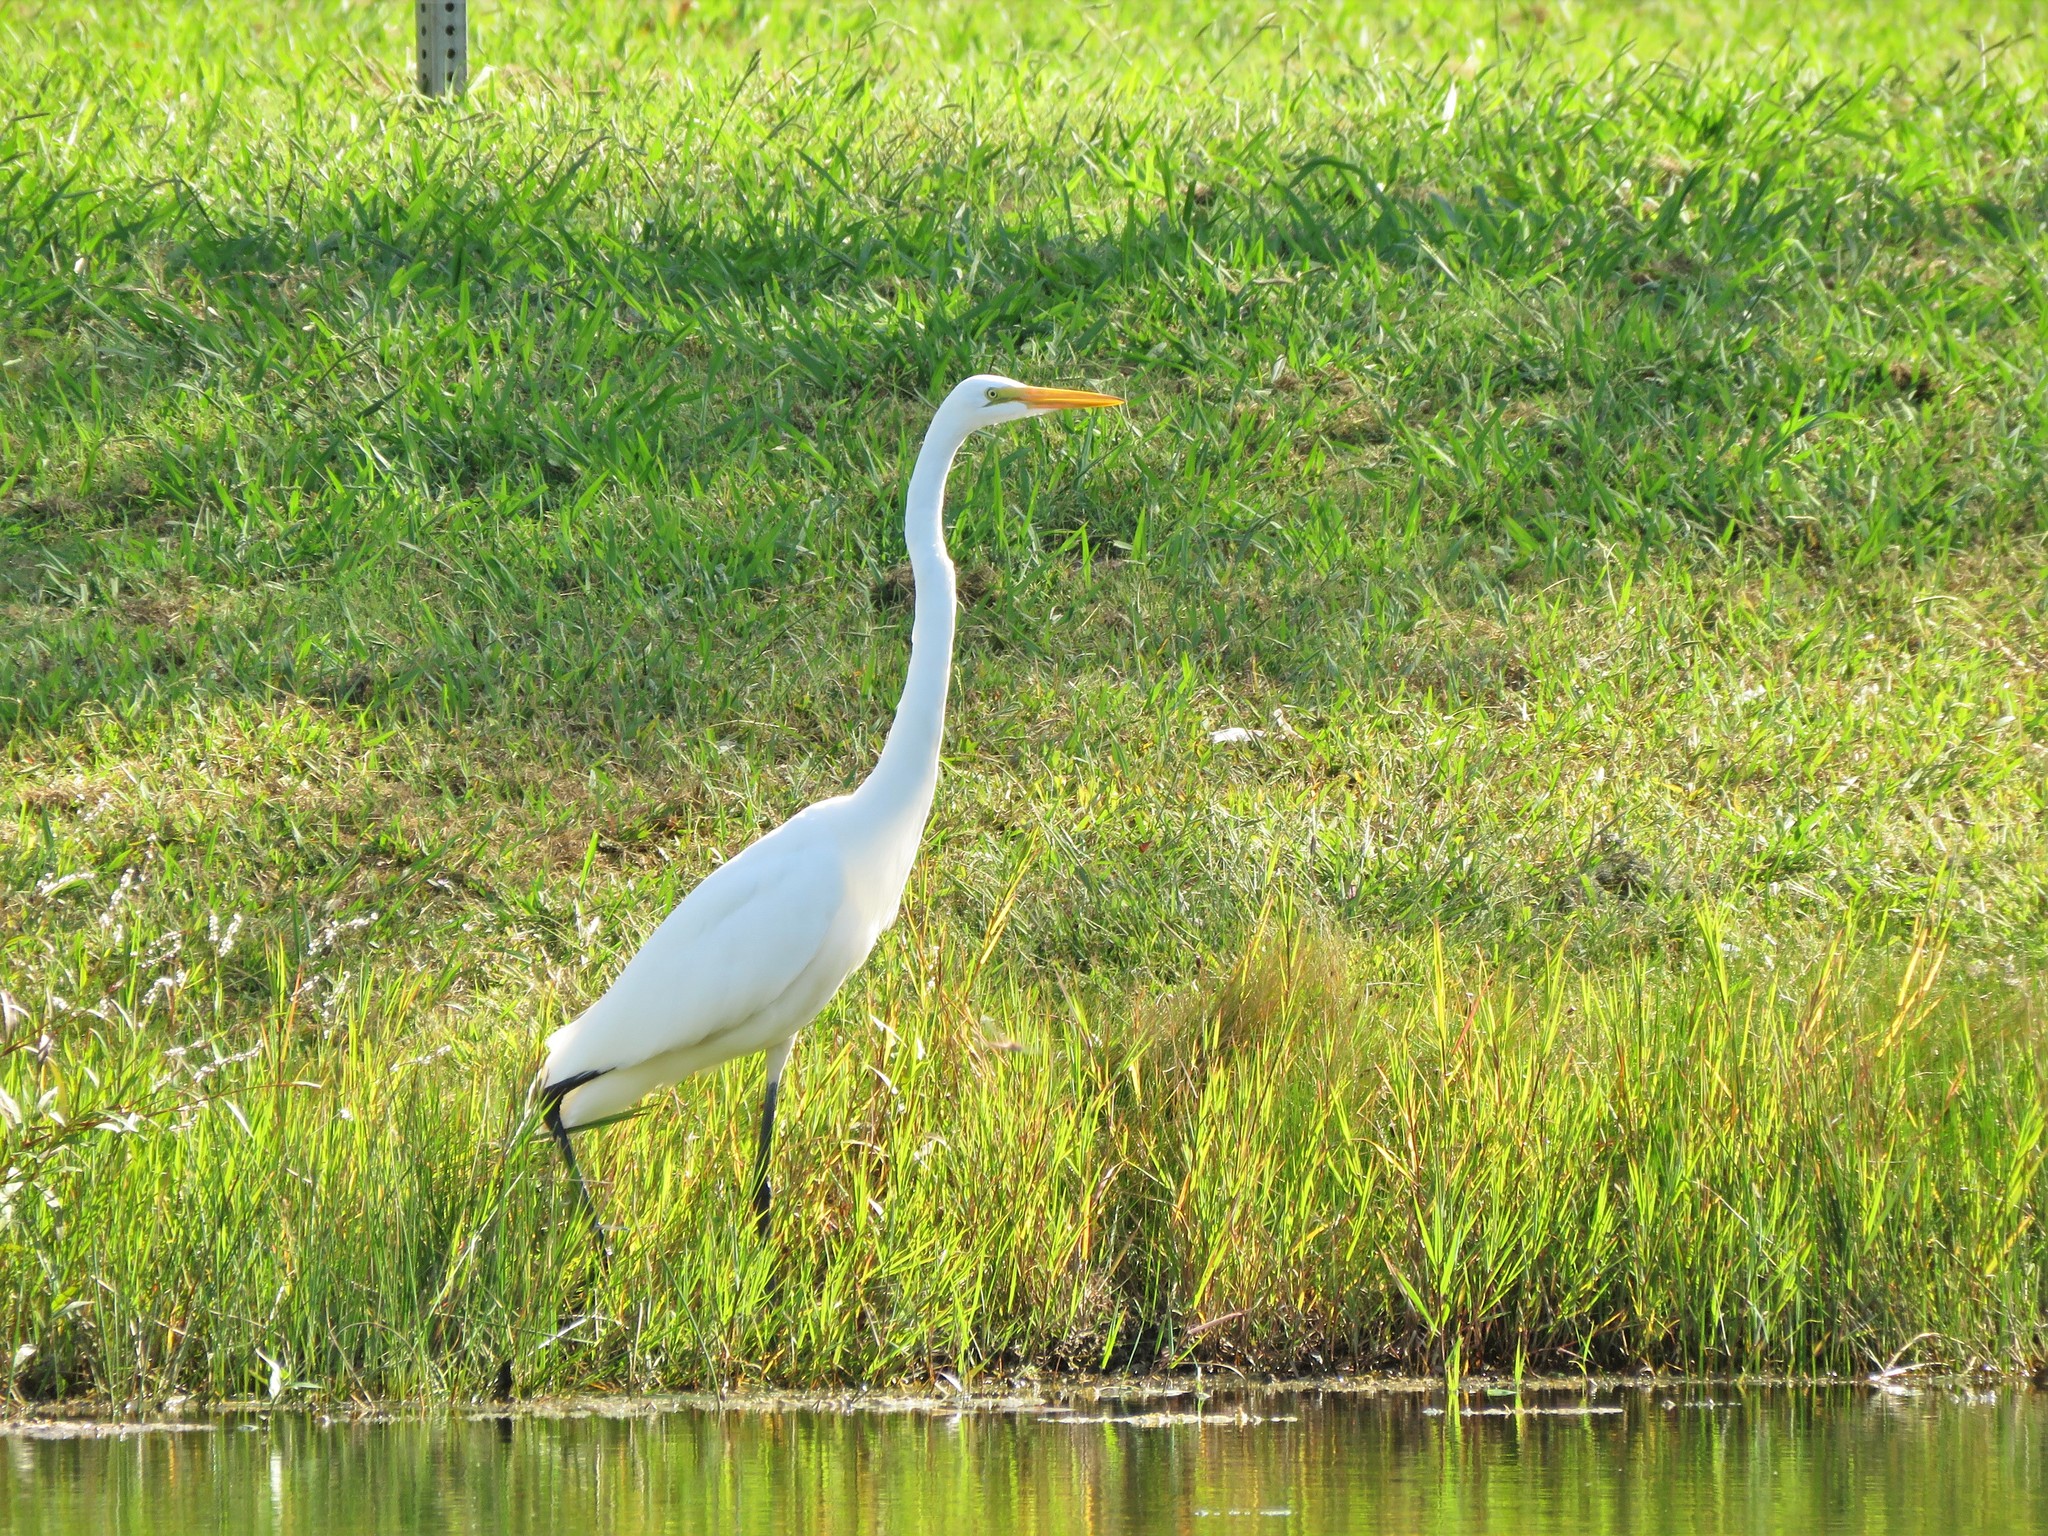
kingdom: Animalia
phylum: Chordata
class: Aves
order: Pelecaniformes
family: Ardeidae
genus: Ardea
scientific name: Ardea alba
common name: Great egret
